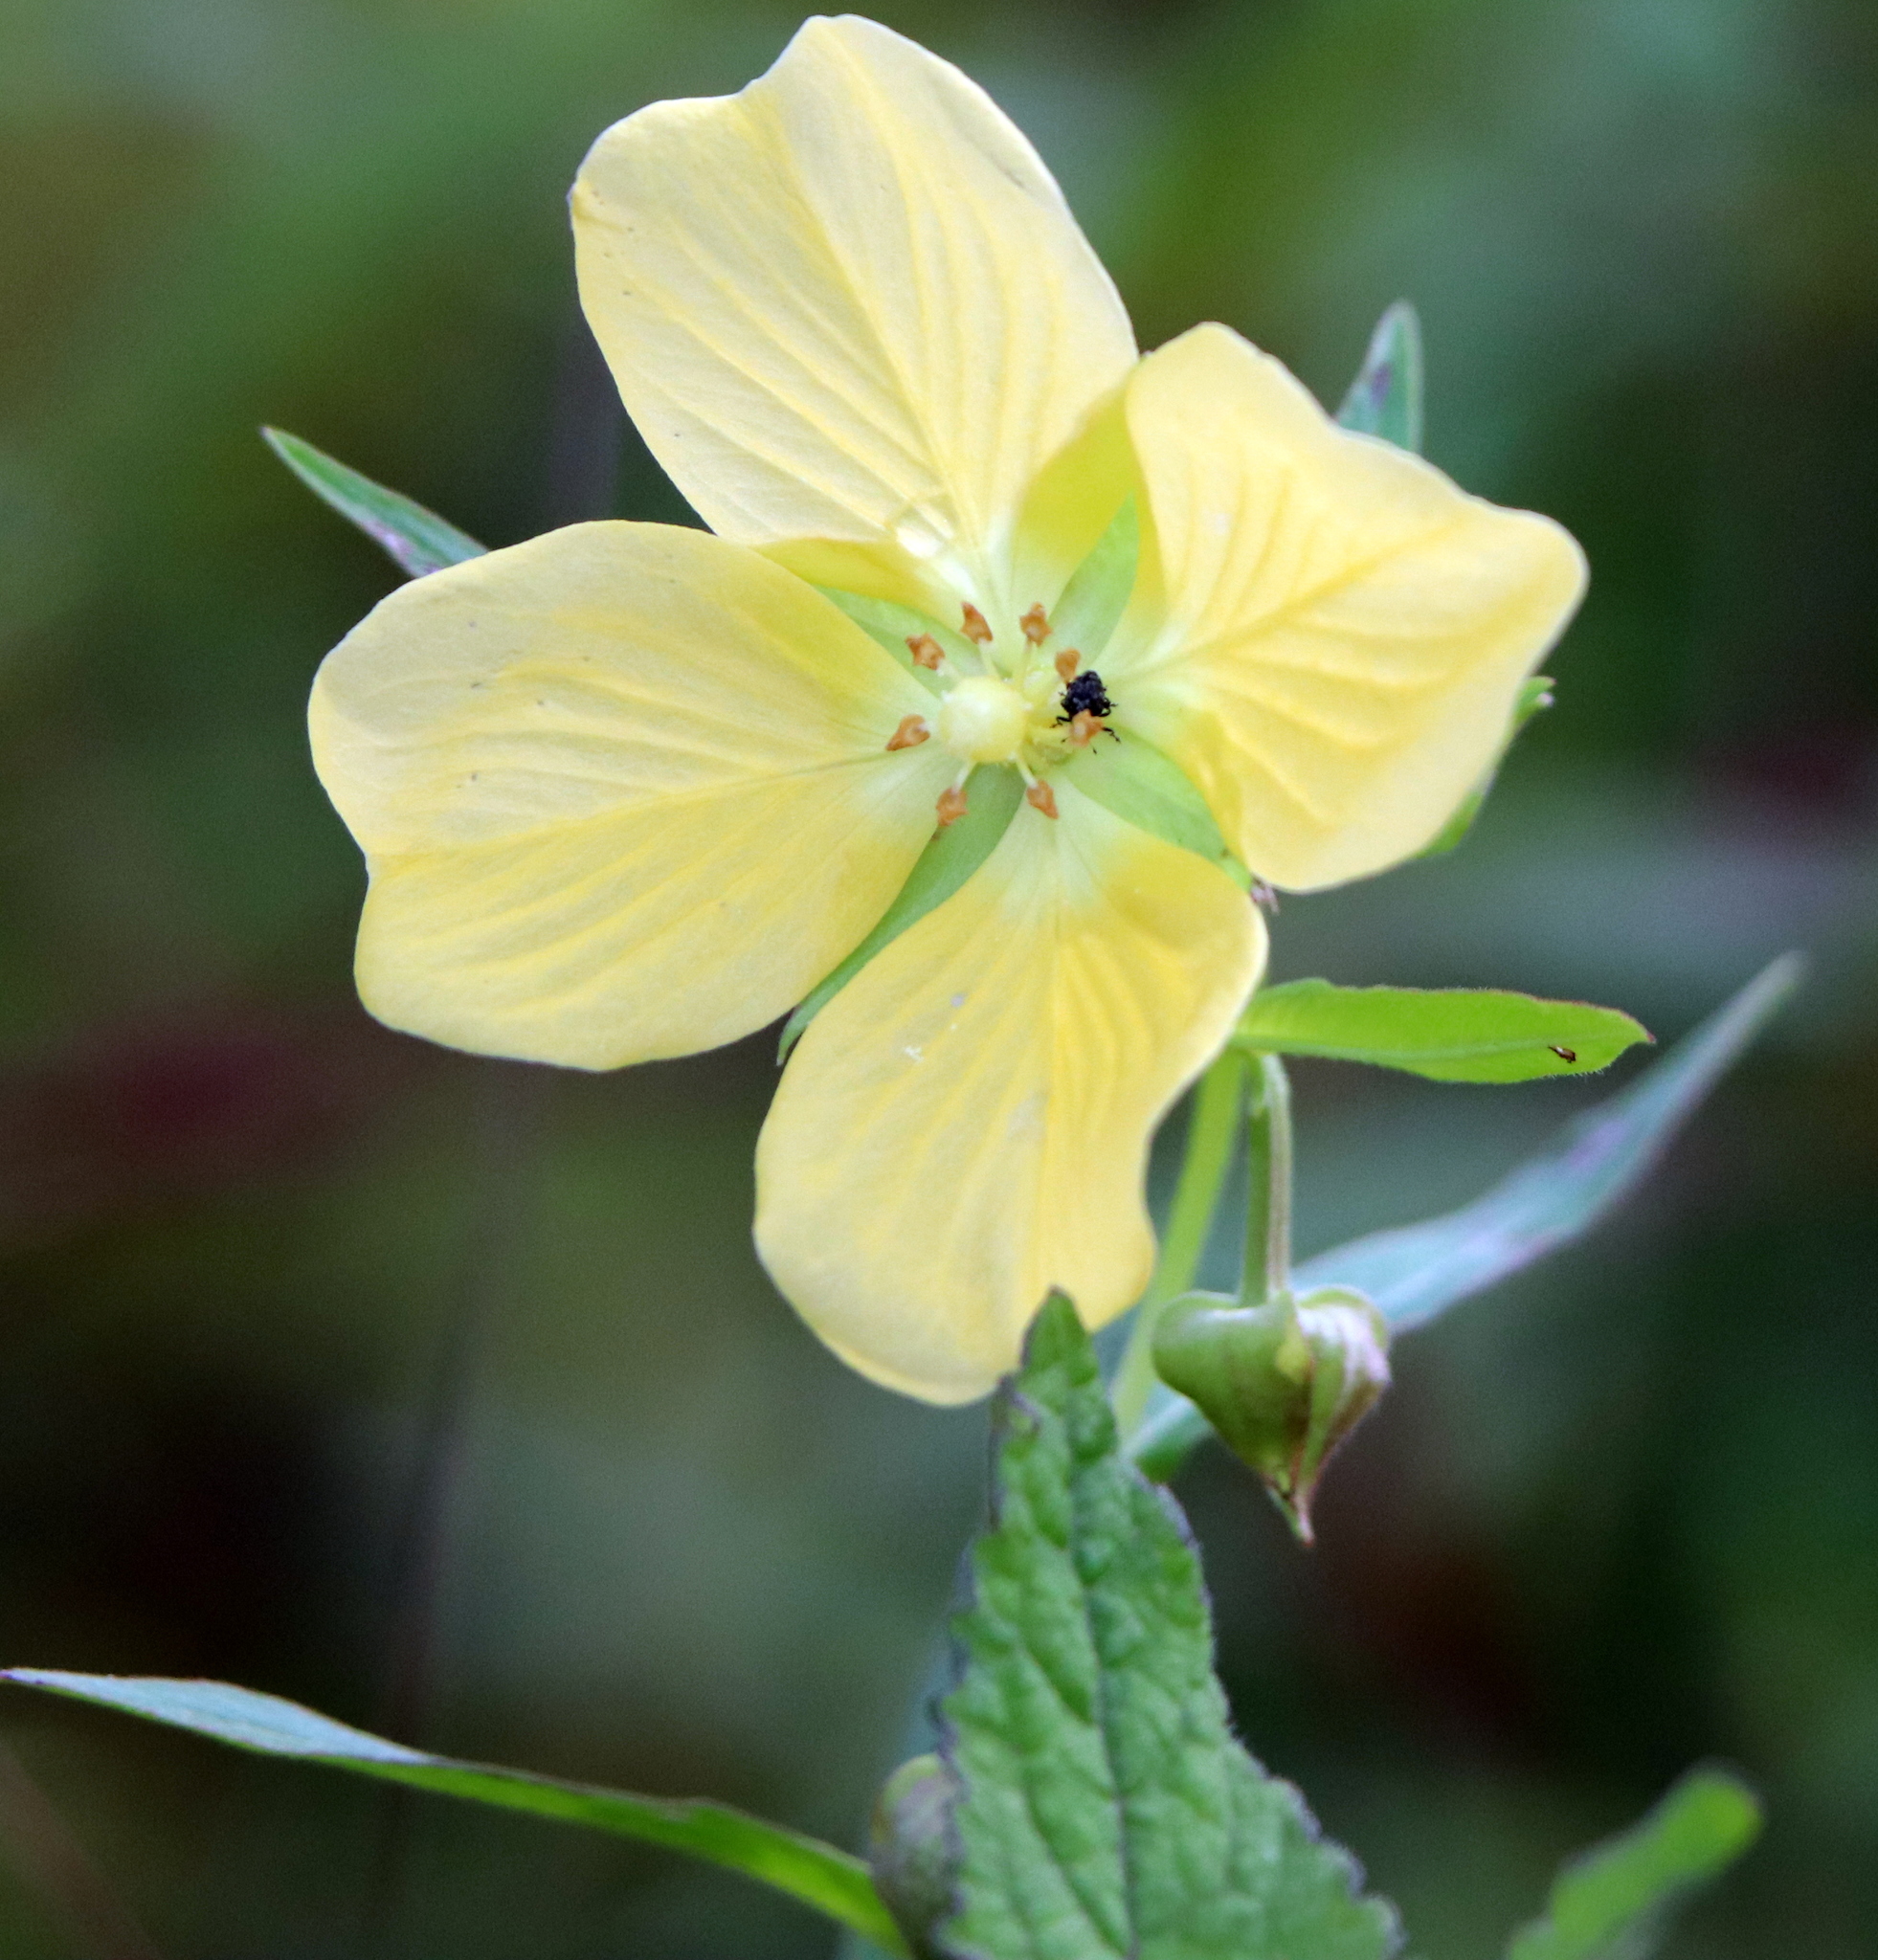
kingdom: Plantae
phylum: Tracheophyta
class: Magnoliopsida
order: Myrtales
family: Onagraceae
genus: Ludwigia
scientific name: Ludwigia octovalvis
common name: Water-primrose
